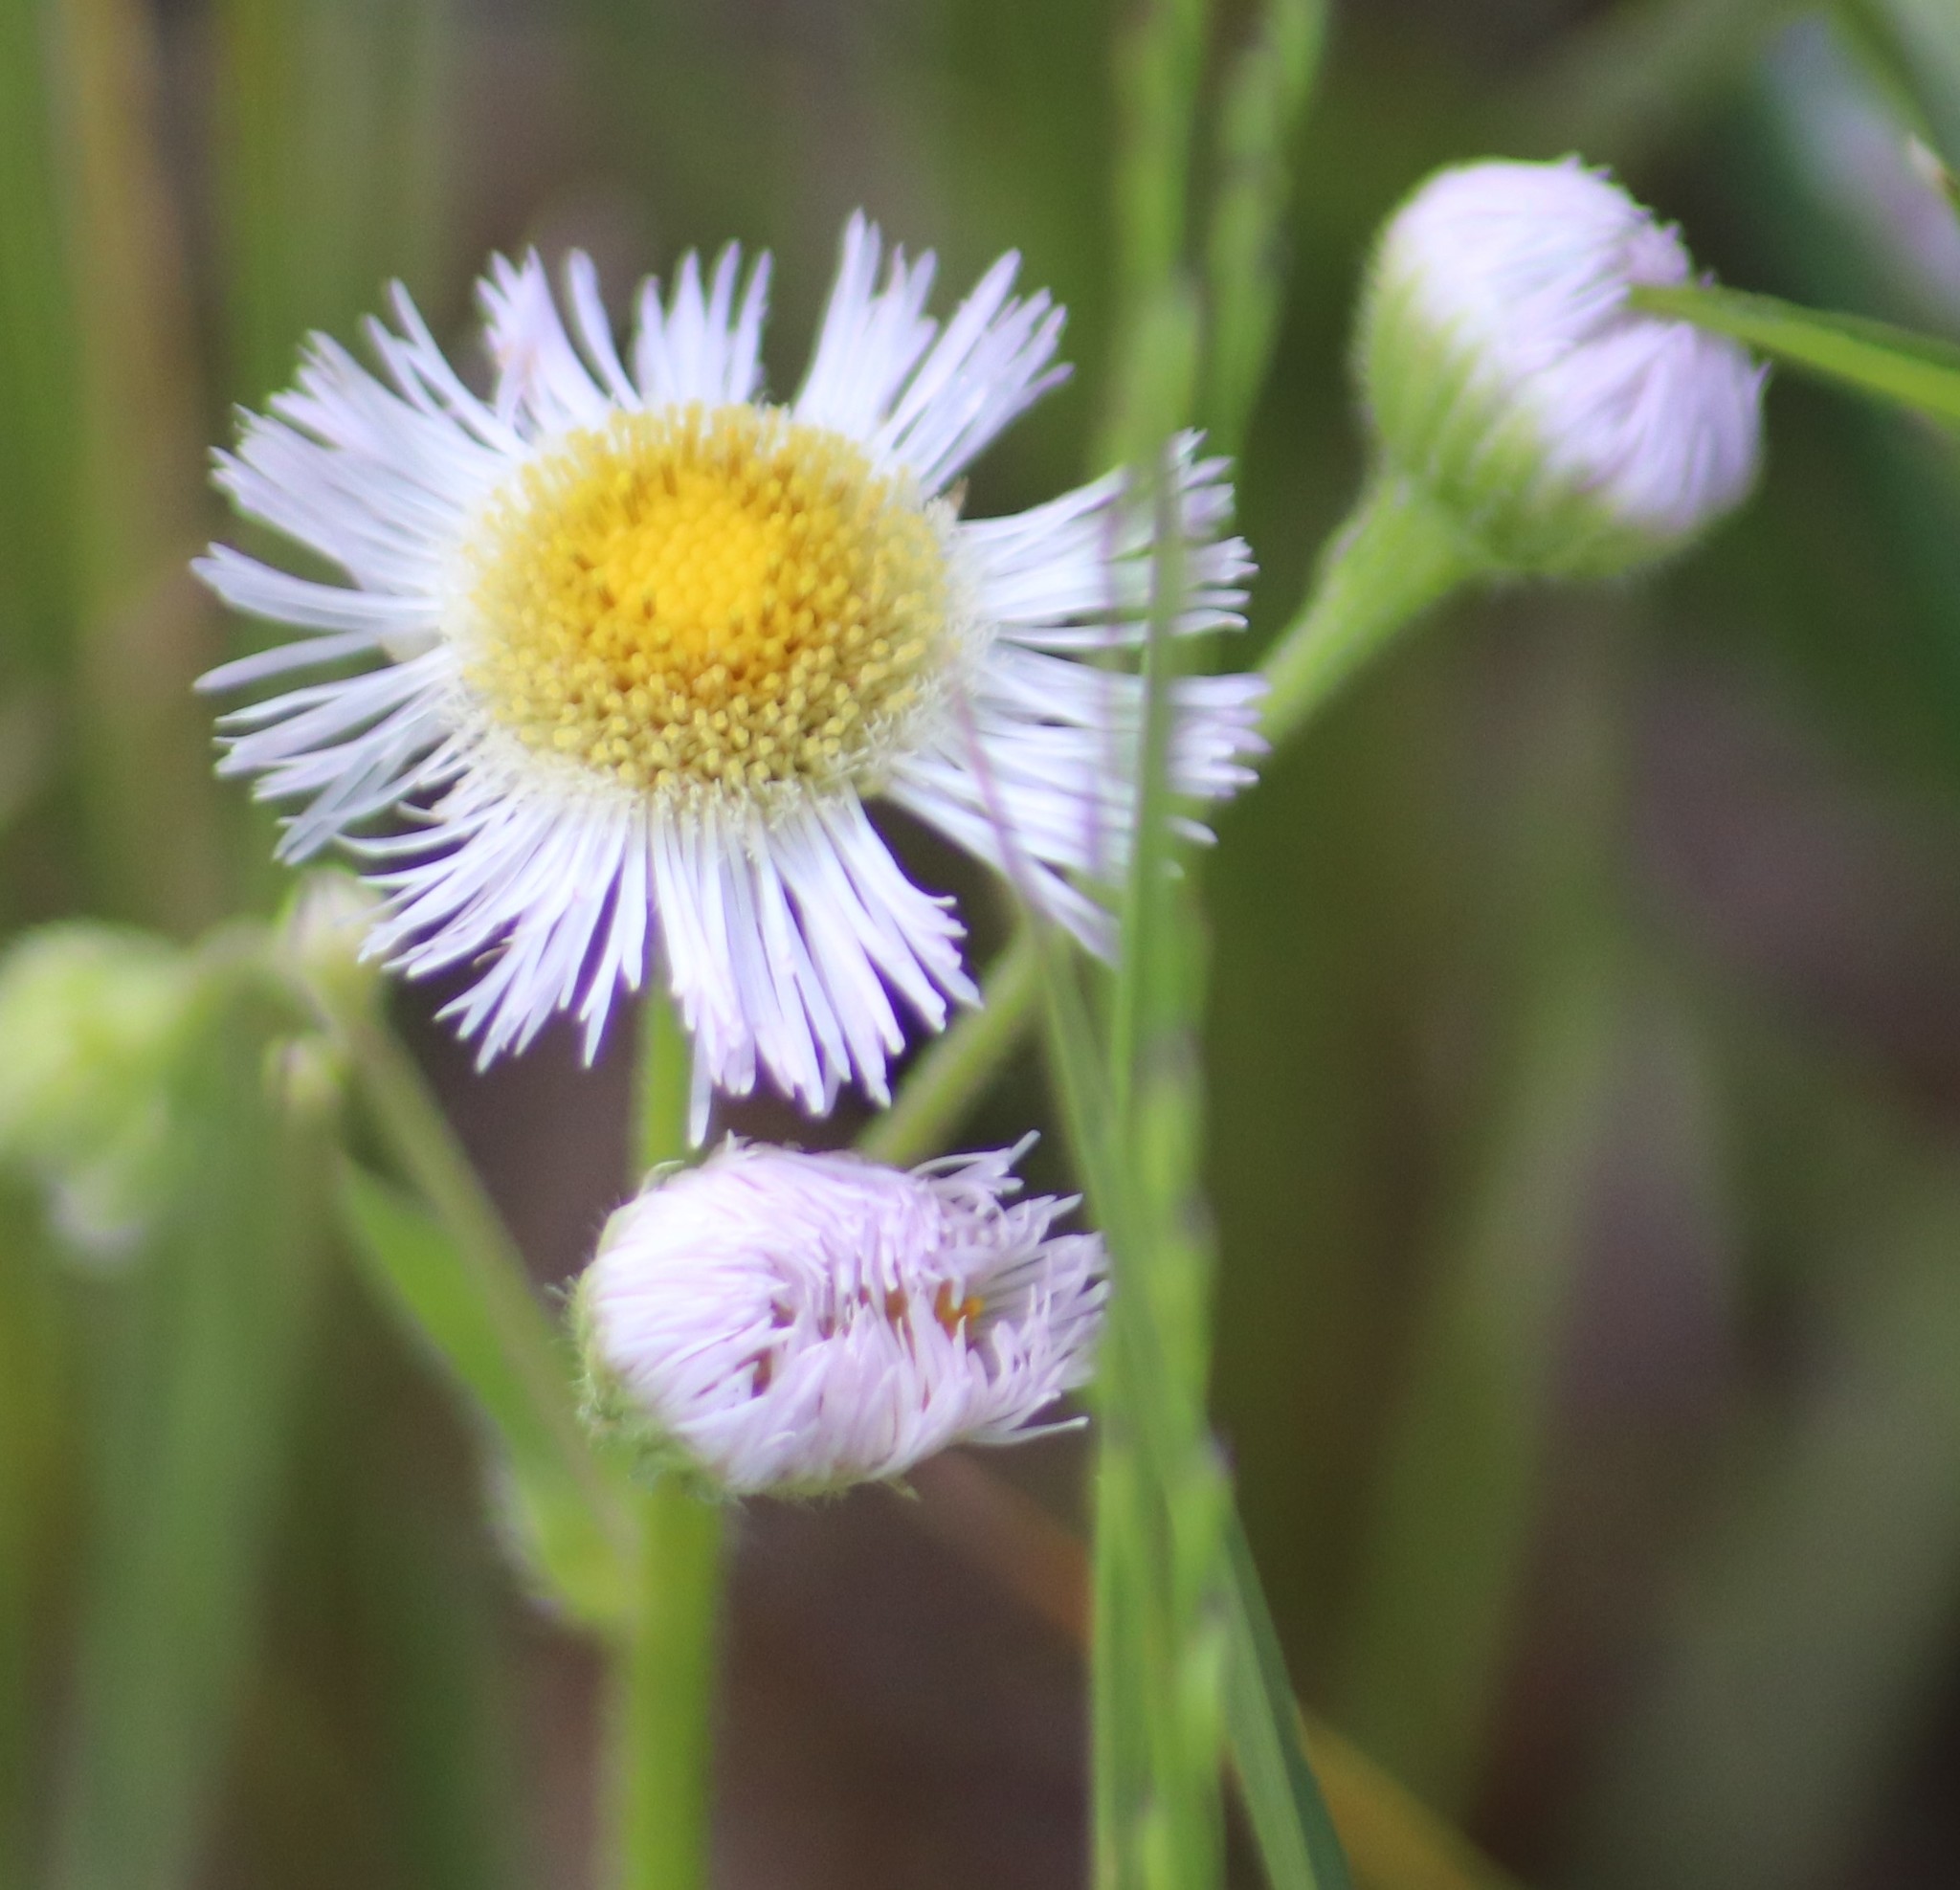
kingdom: Plantae
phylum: Tracheophyta
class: Magnoliopsida
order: Asterales
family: Asteraceae
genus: Erigeron
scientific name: Erigeron philadelphicus
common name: Robin's-plantain
